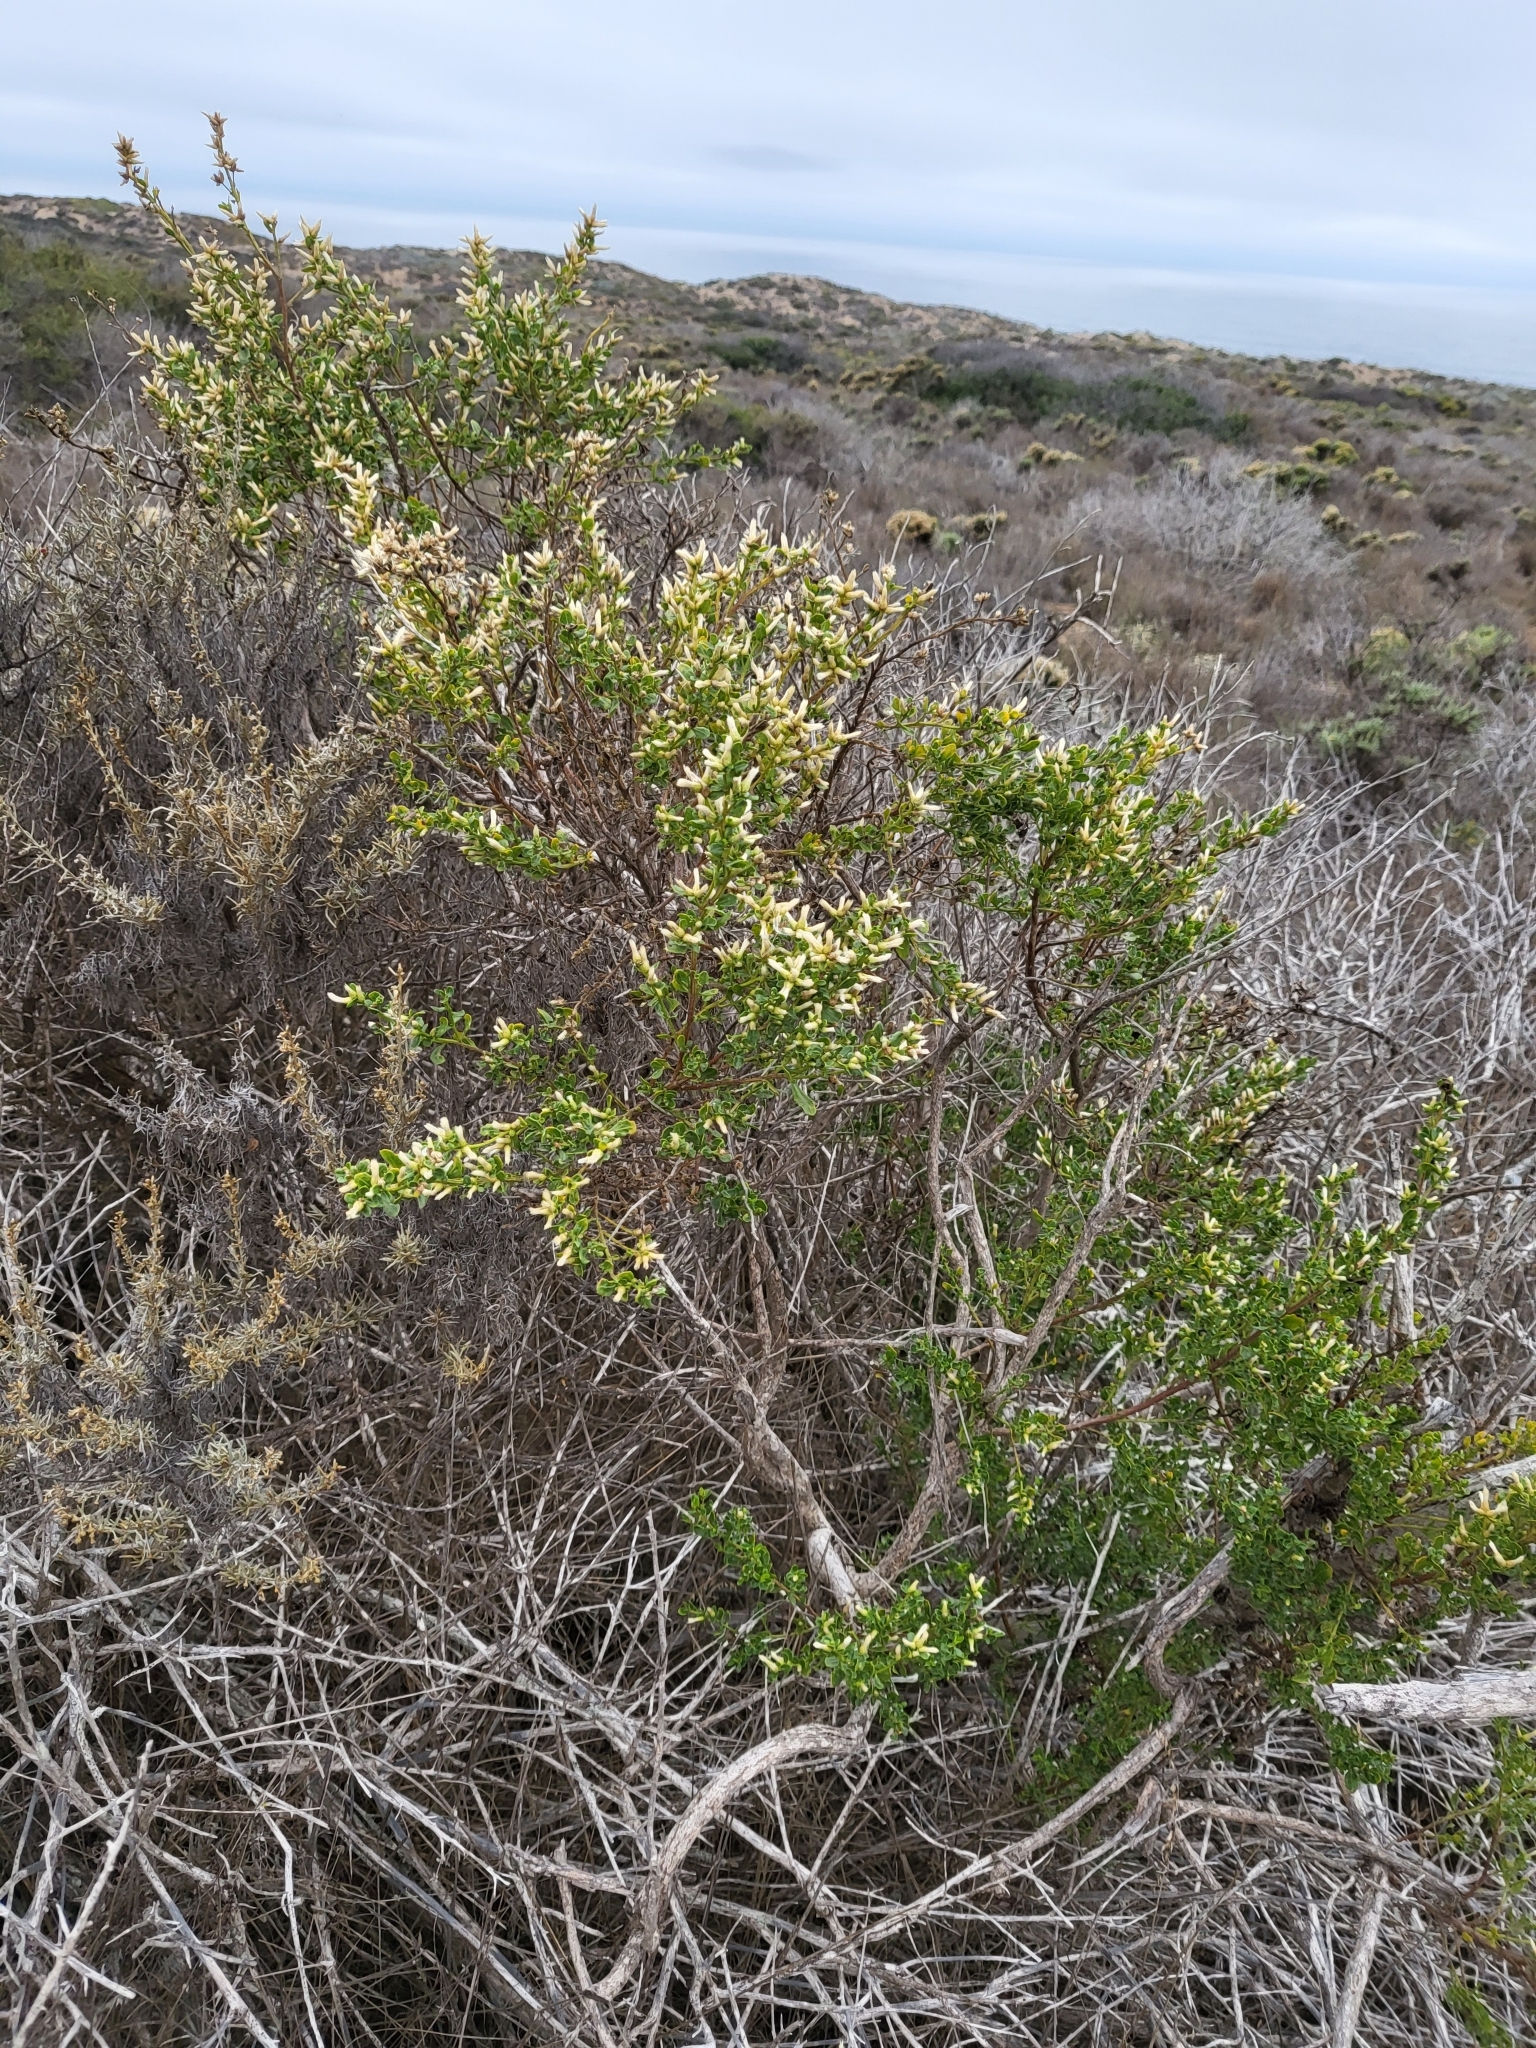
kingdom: Plantae
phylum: Tracheophyta
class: Magnoliopsida
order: Asterales
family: Asteraceae
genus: Baccharis
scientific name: Baccharis pilularis
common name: Coyotebrush
